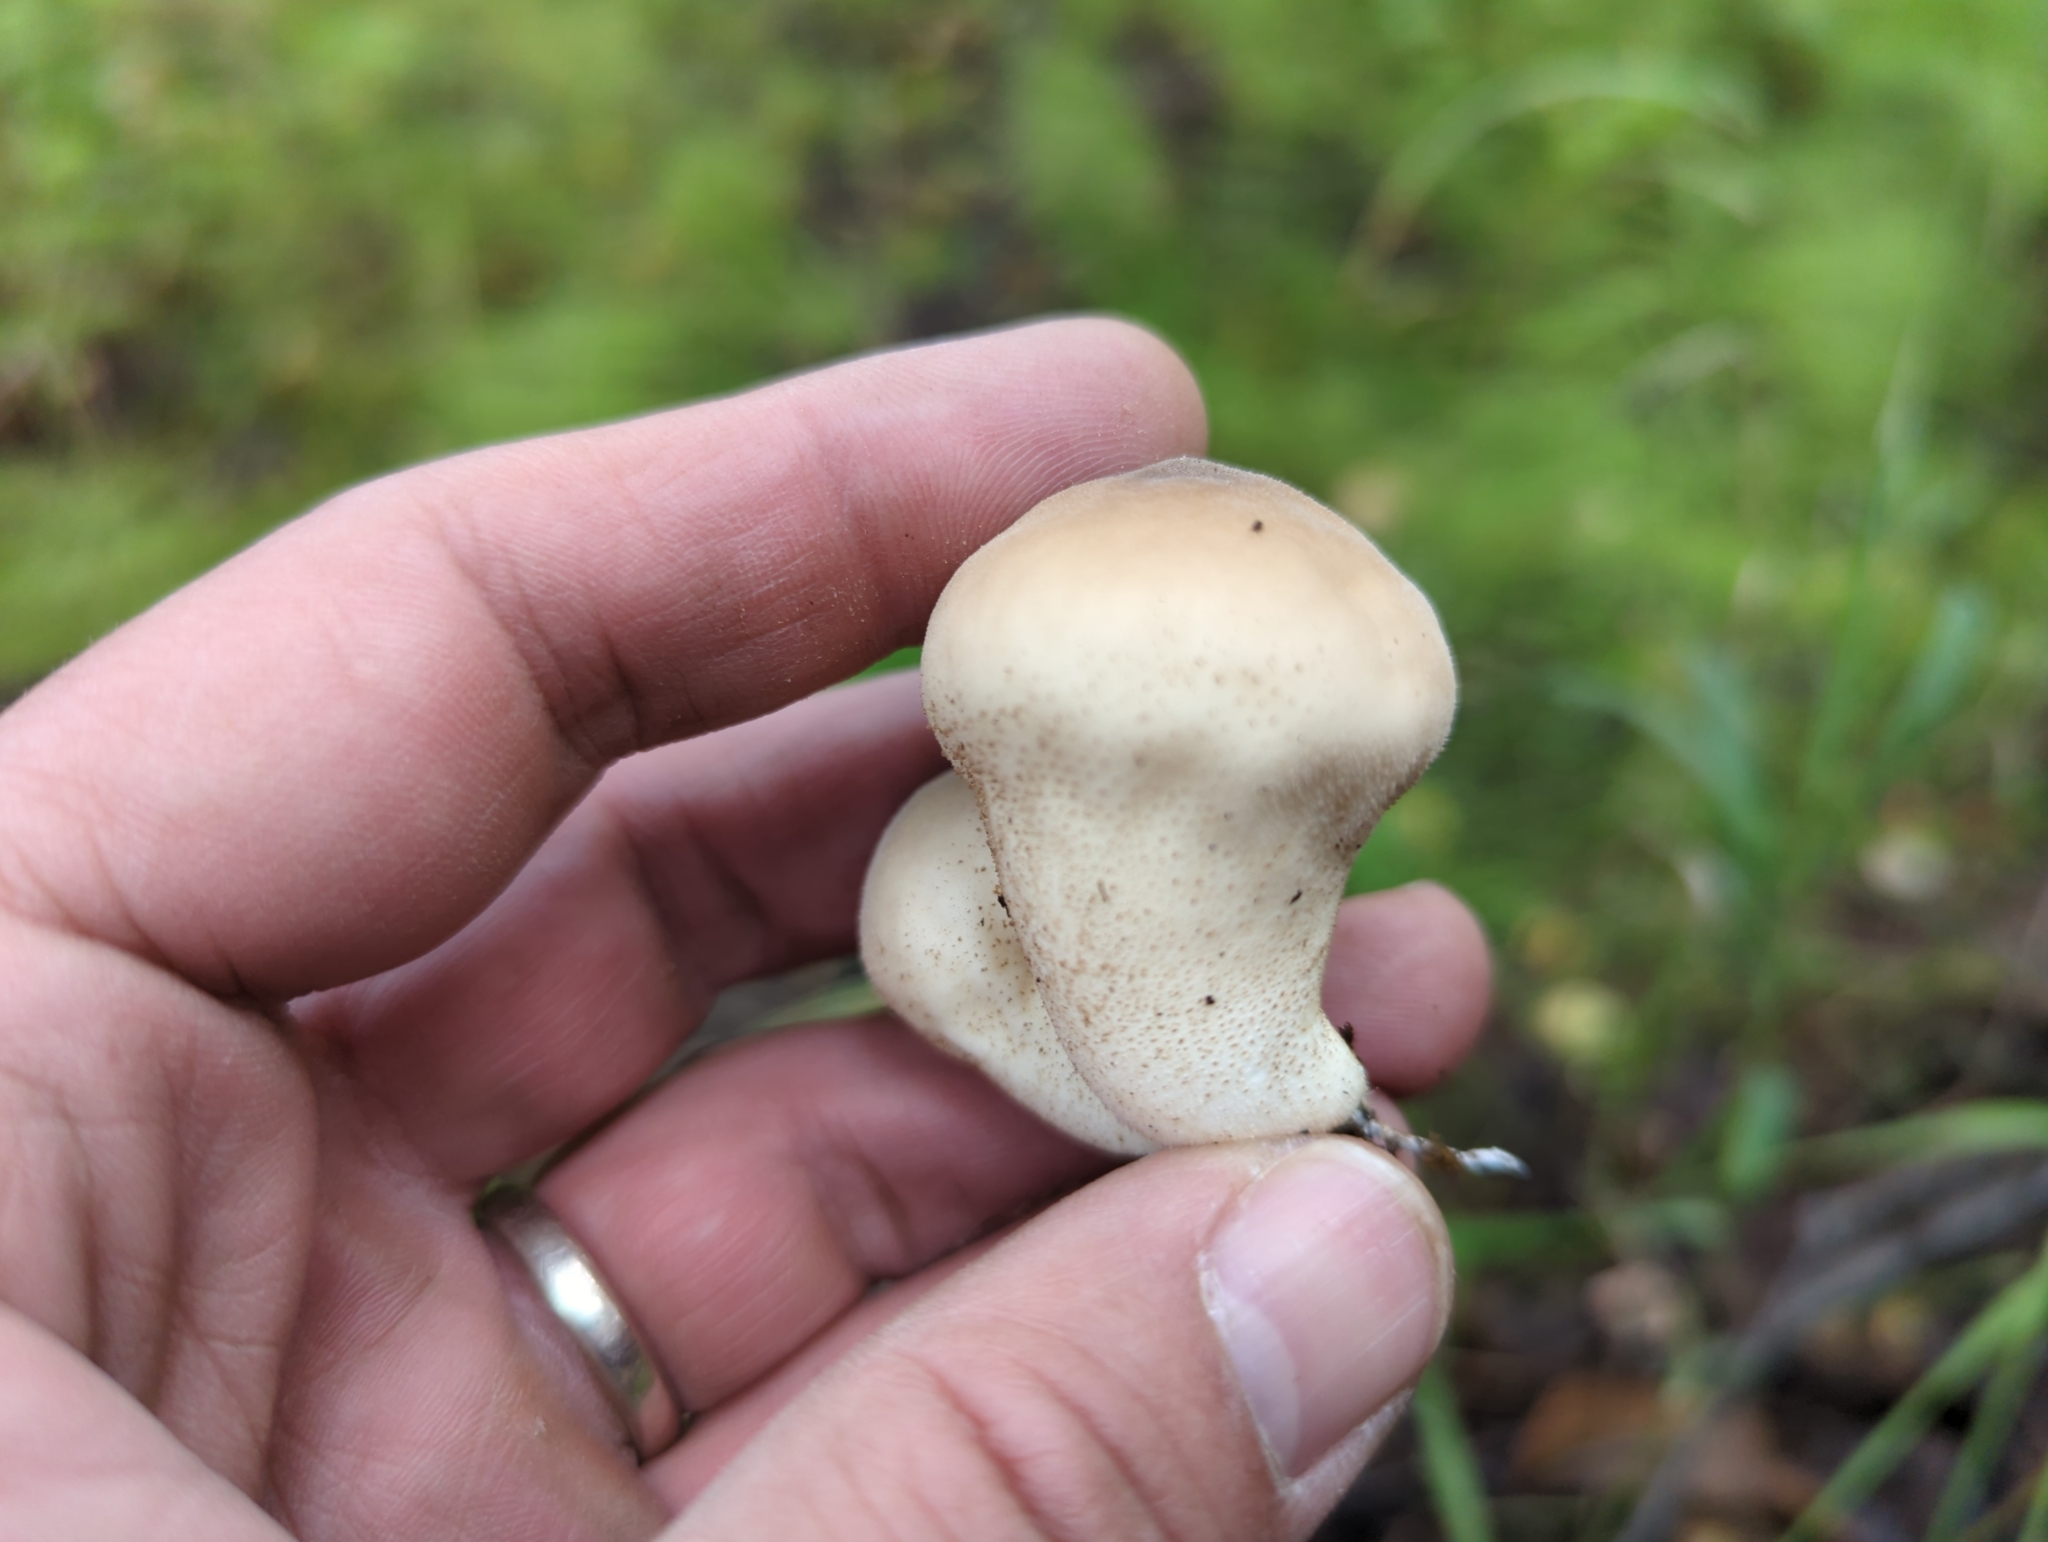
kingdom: Fungi
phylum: Basidiomycota
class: Agaricomycetes
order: Agaricales
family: Lycoperdaceae
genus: Apioperdon
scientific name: Apioperdon pyriforme
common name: Pear-shaped puffball
